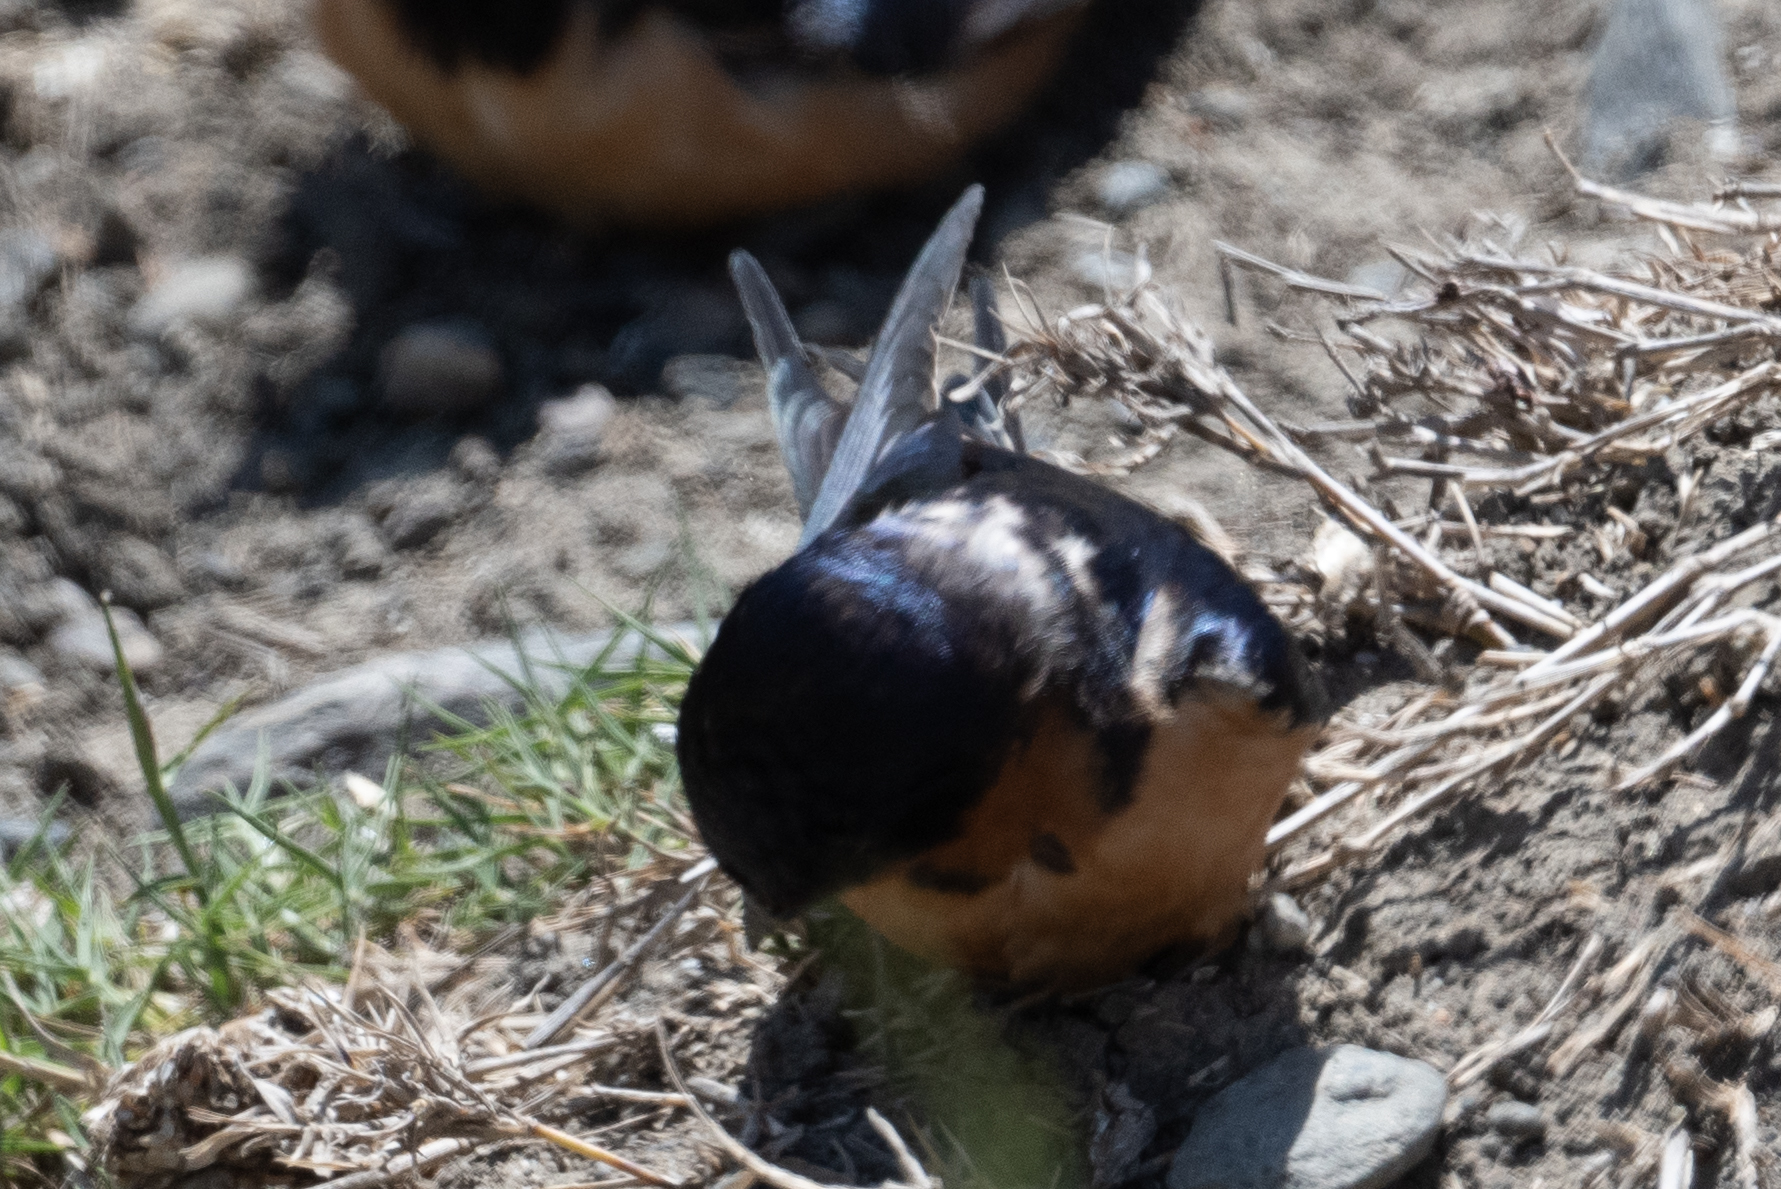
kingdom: Animalia
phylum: Chordata
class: Aves
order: Passeriformes
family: Hirundinidae
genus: Hirundo
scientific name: Hirundo rustica
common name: Barn swallow
